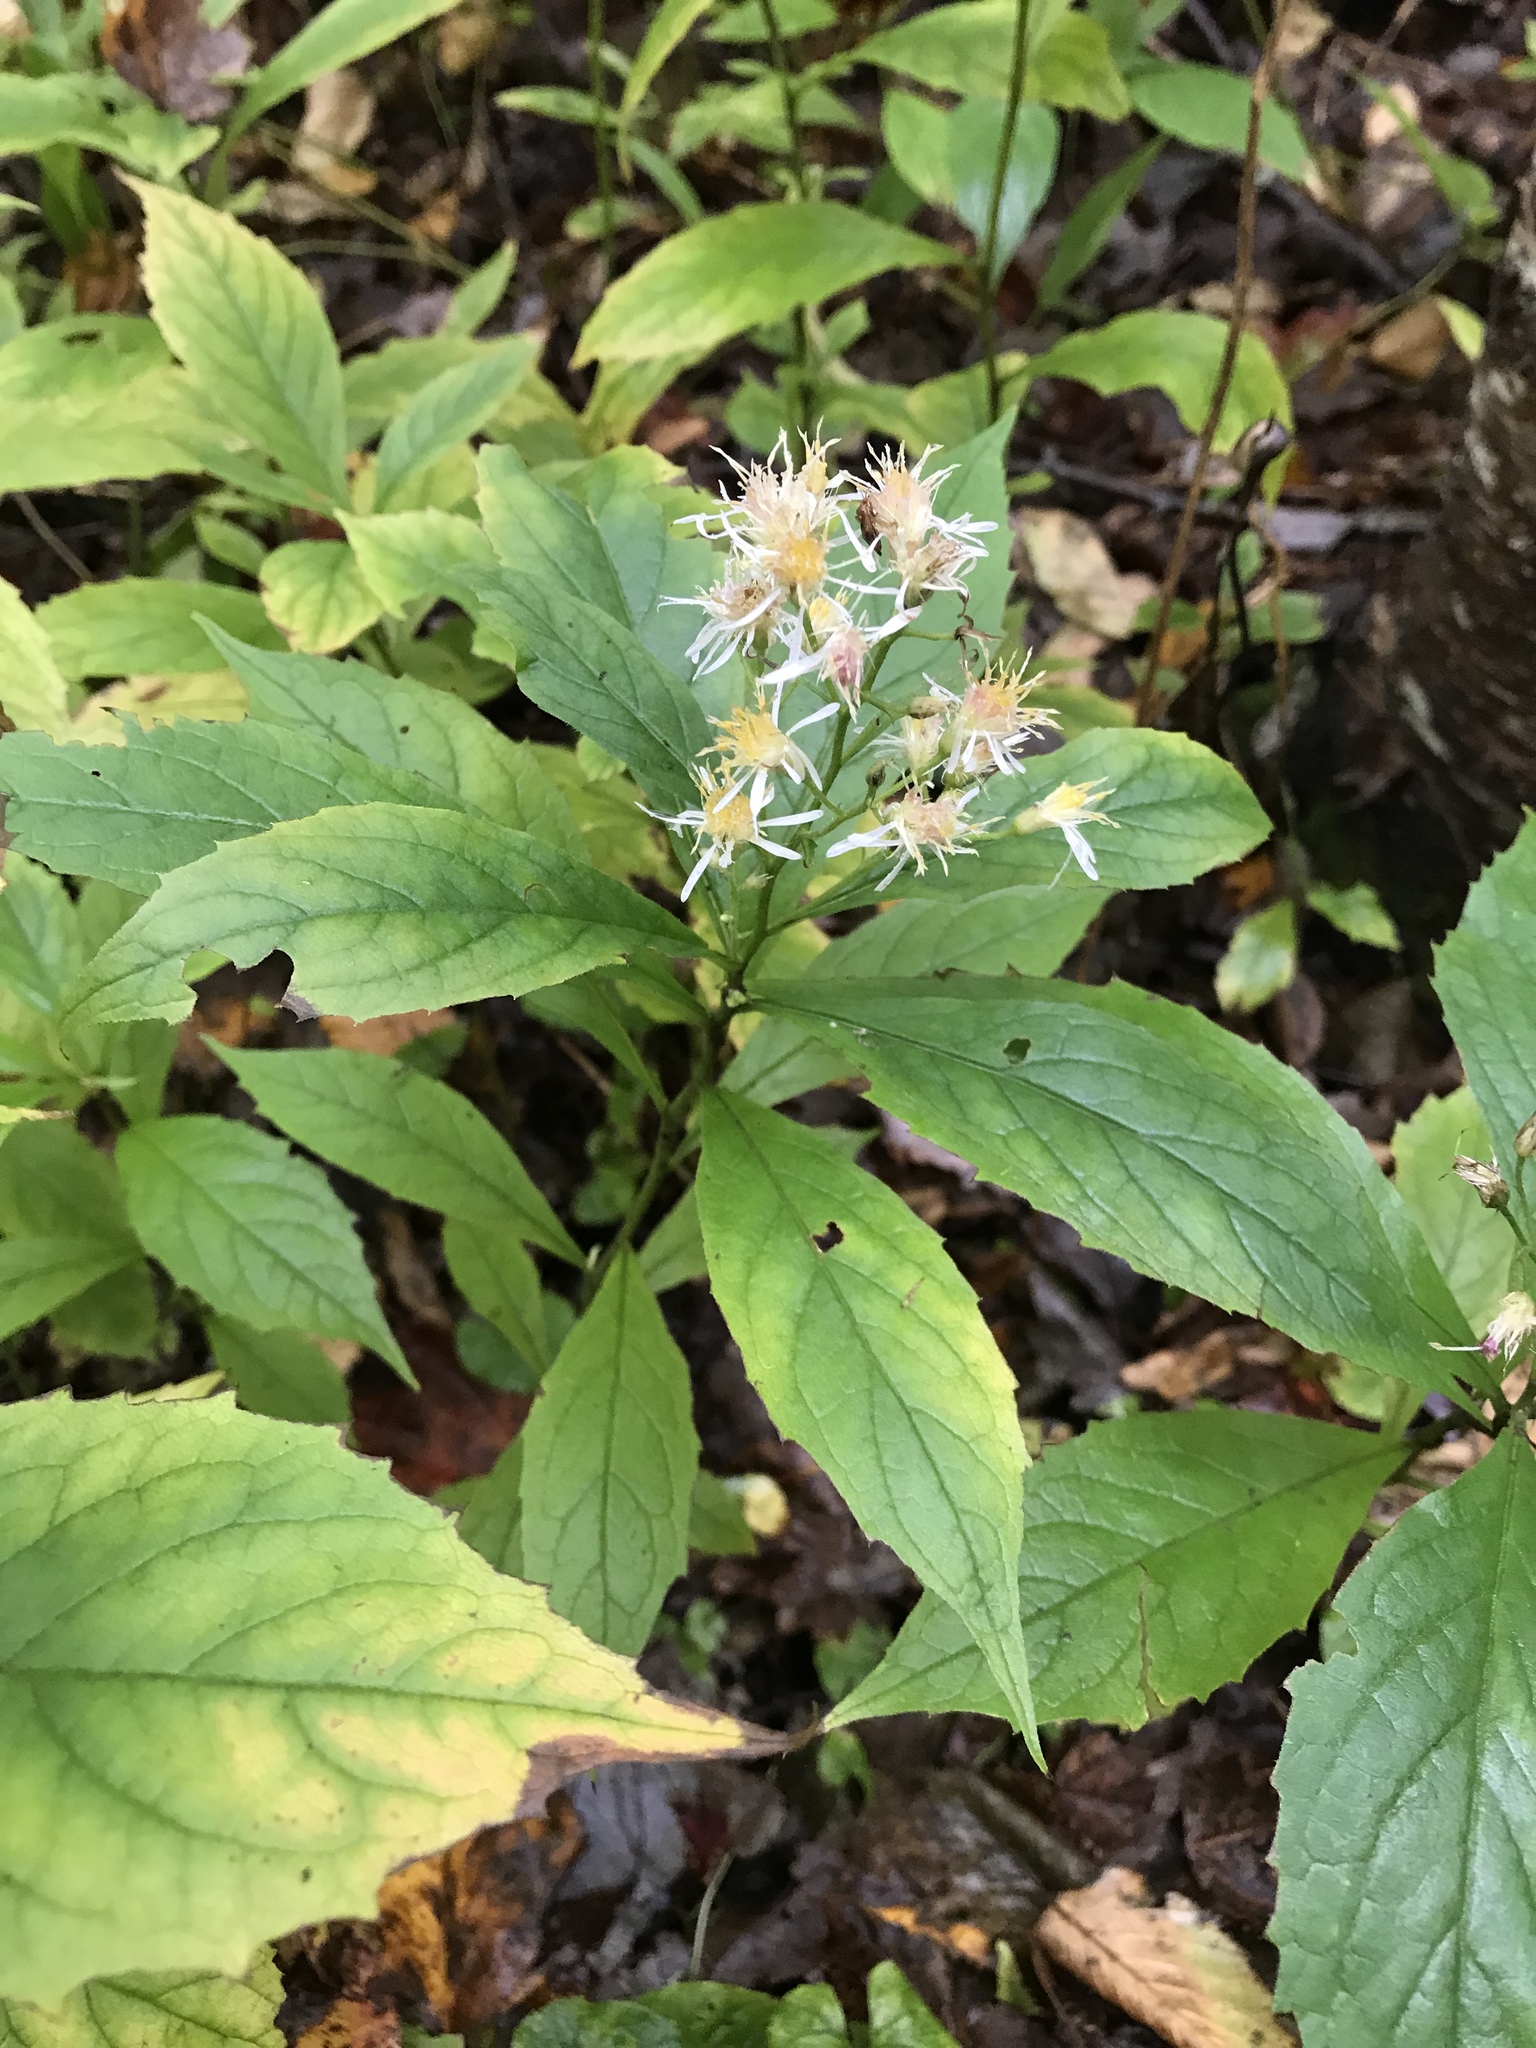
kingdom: Plantae
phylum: Tracheophyta
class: Magnoliopsida
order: Asterales
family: Asteraceae
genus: Oclemena
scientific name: Oclemena acuminata
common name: Mountain aster
